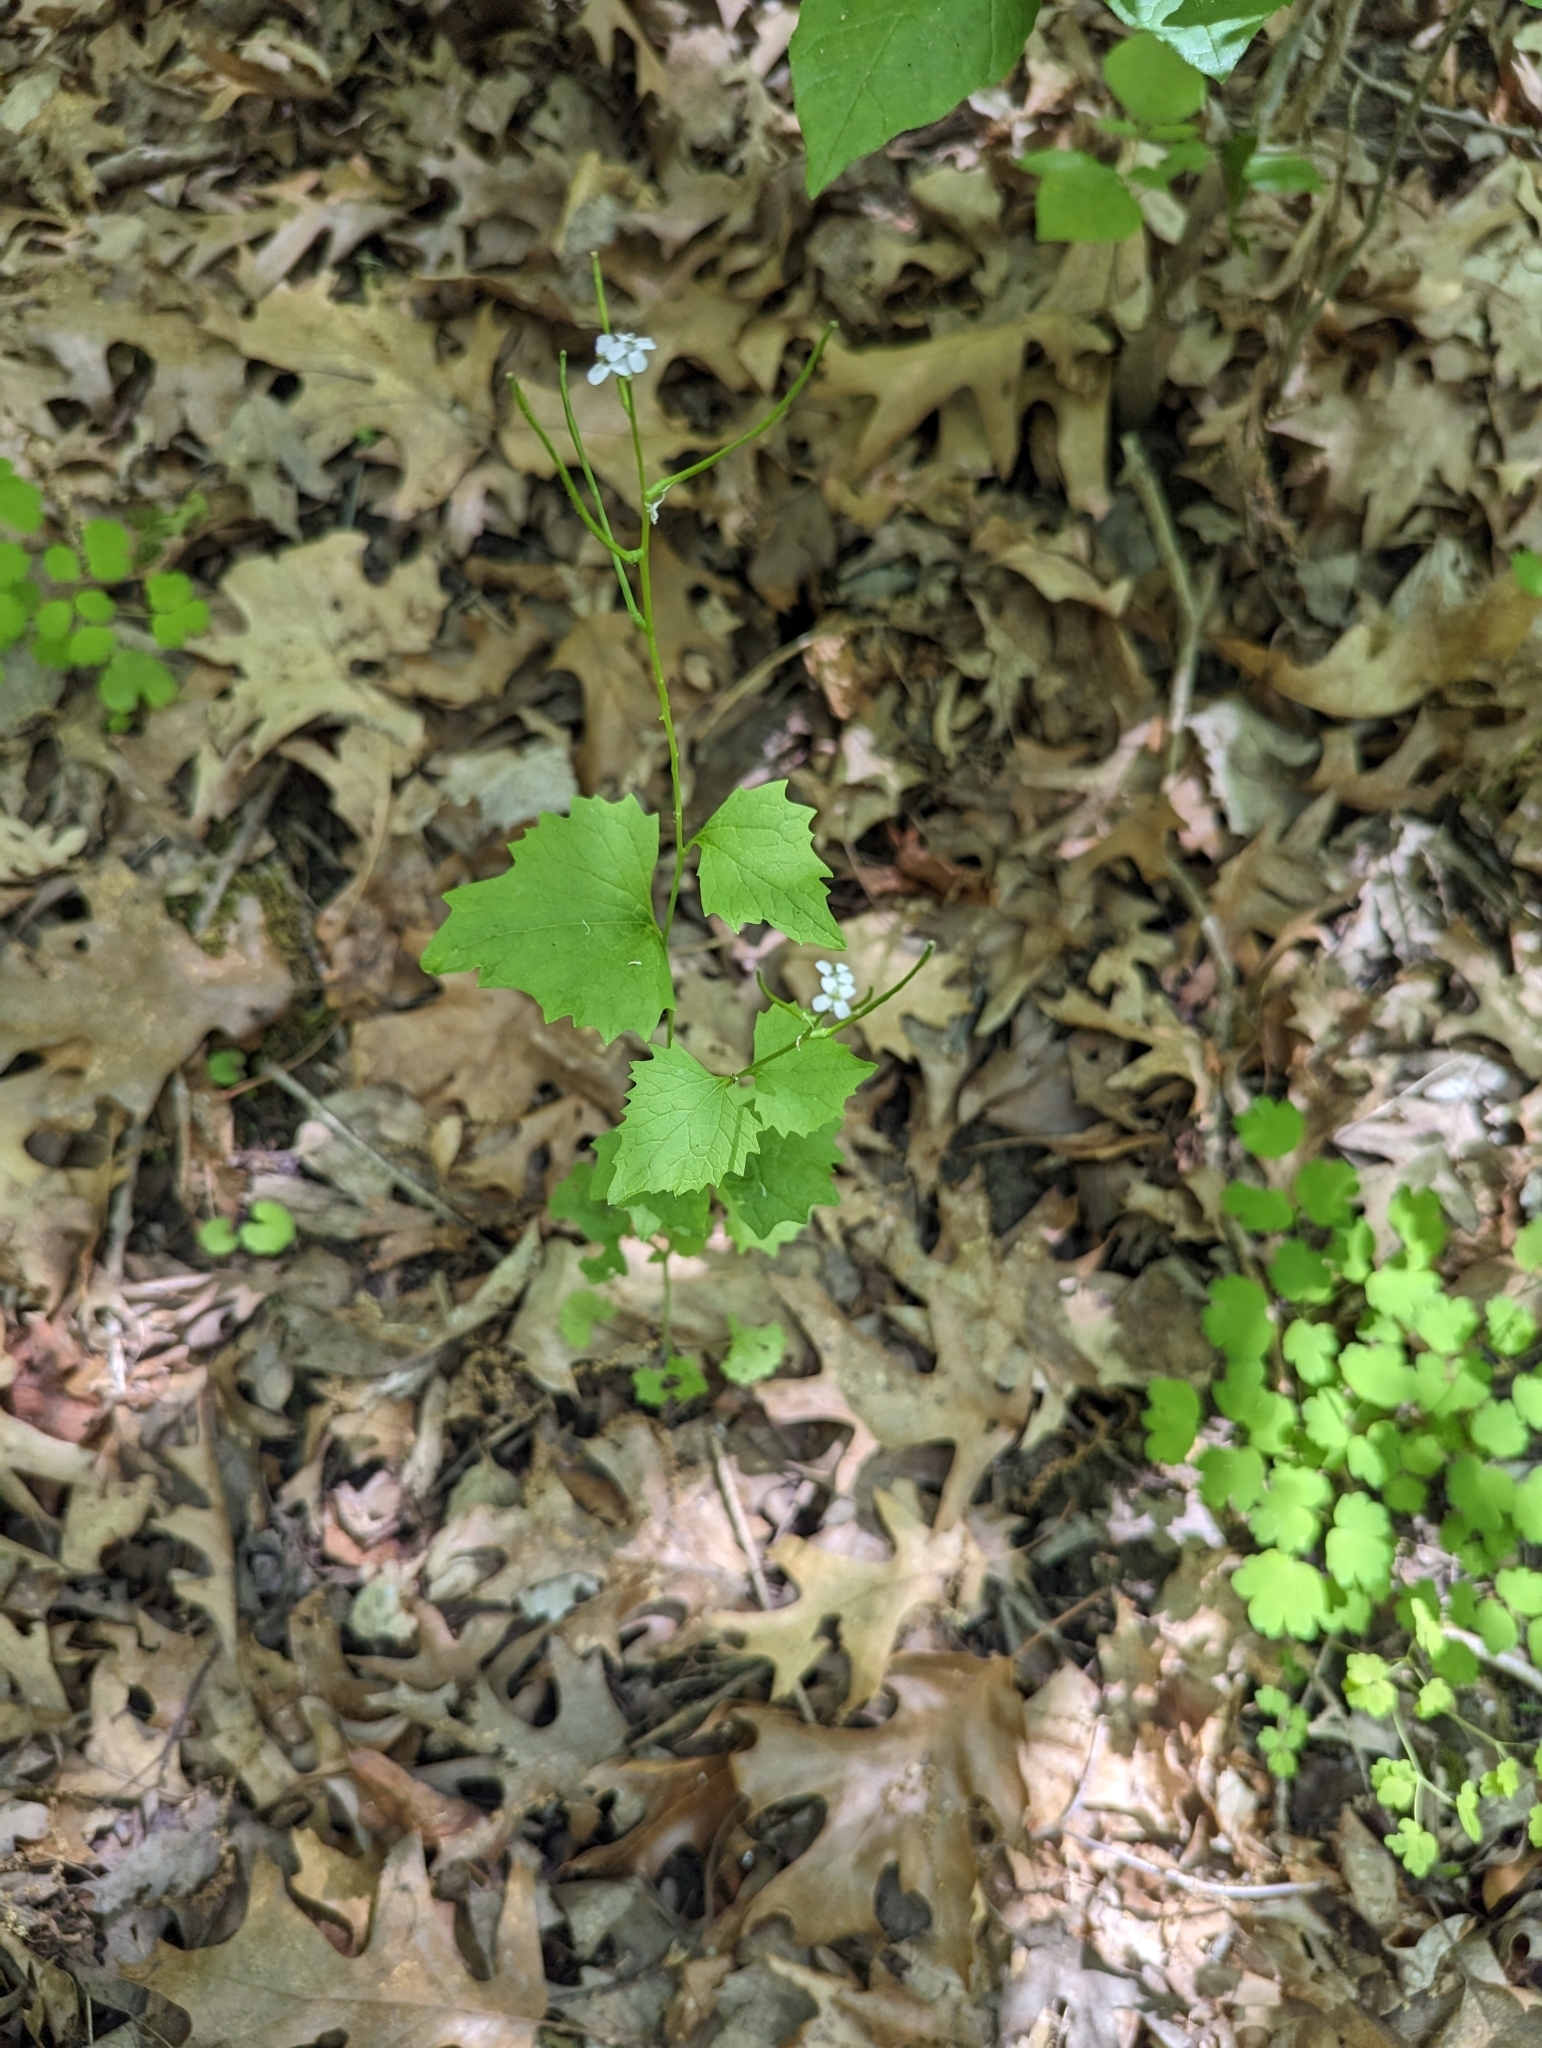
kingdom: Plantae
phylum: Tracheophyta
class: Magnoliopsida
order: Brassicales
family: Brassicaceae
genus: Alliaria
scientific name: Alliaria petiolata
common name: Garlic mustard
